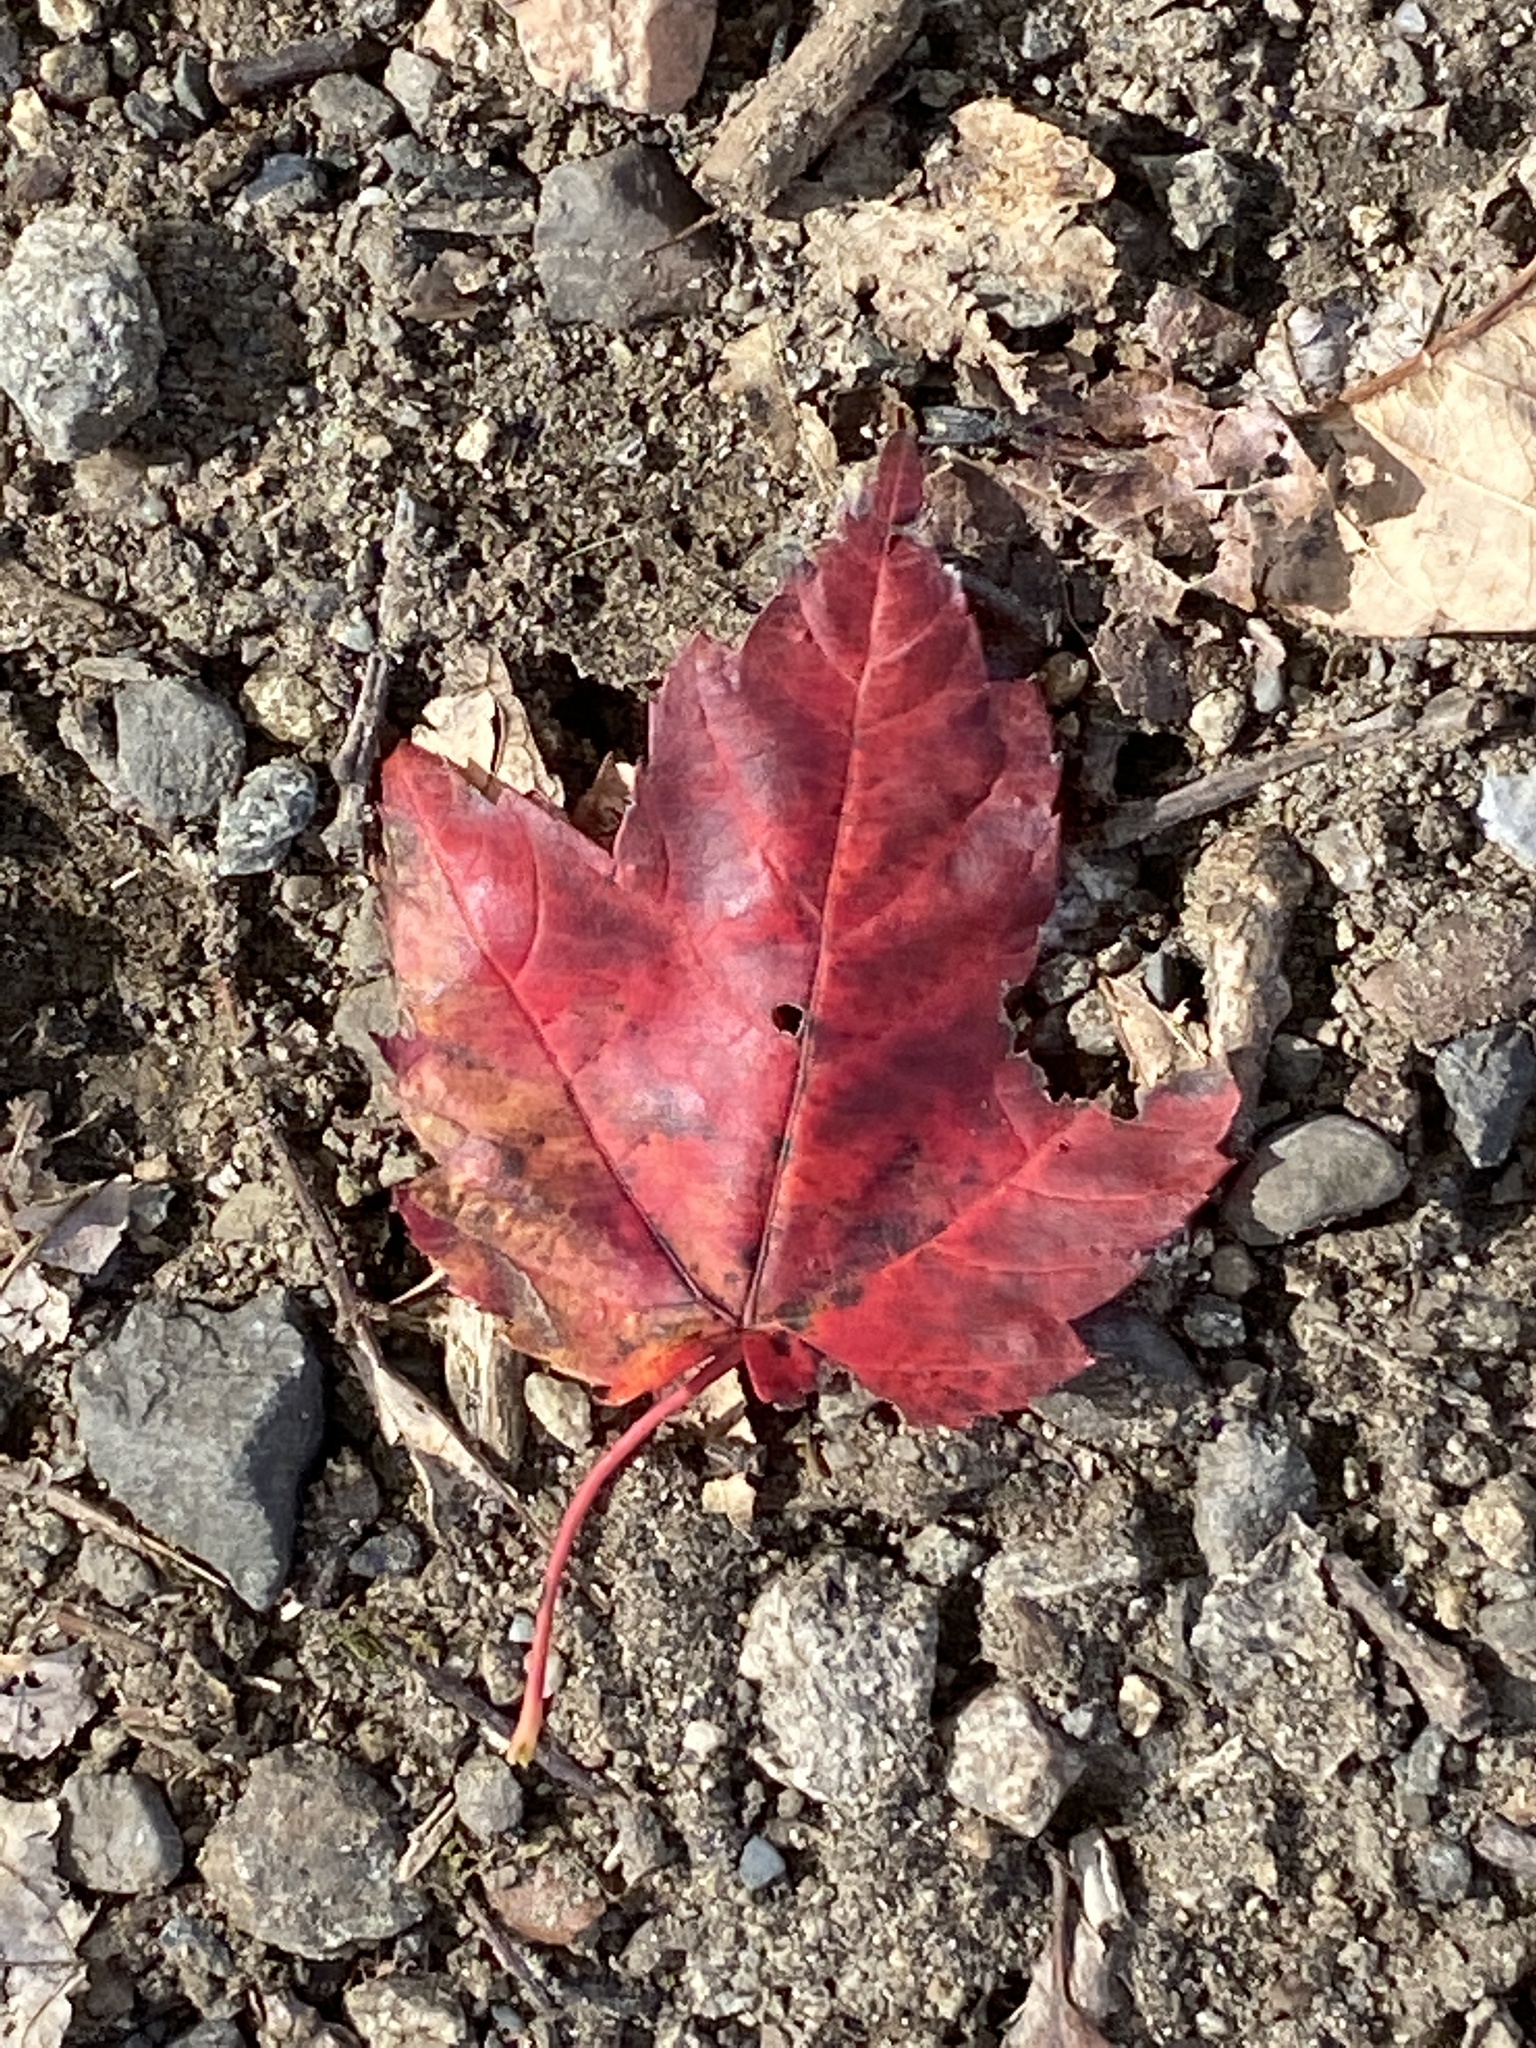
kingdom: Plantae
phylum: Tracheophyta
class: Magnoliopsida
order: Sapindales
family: Sapindaceae
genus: Acer
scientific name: Acer rubrum
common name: Red maple
